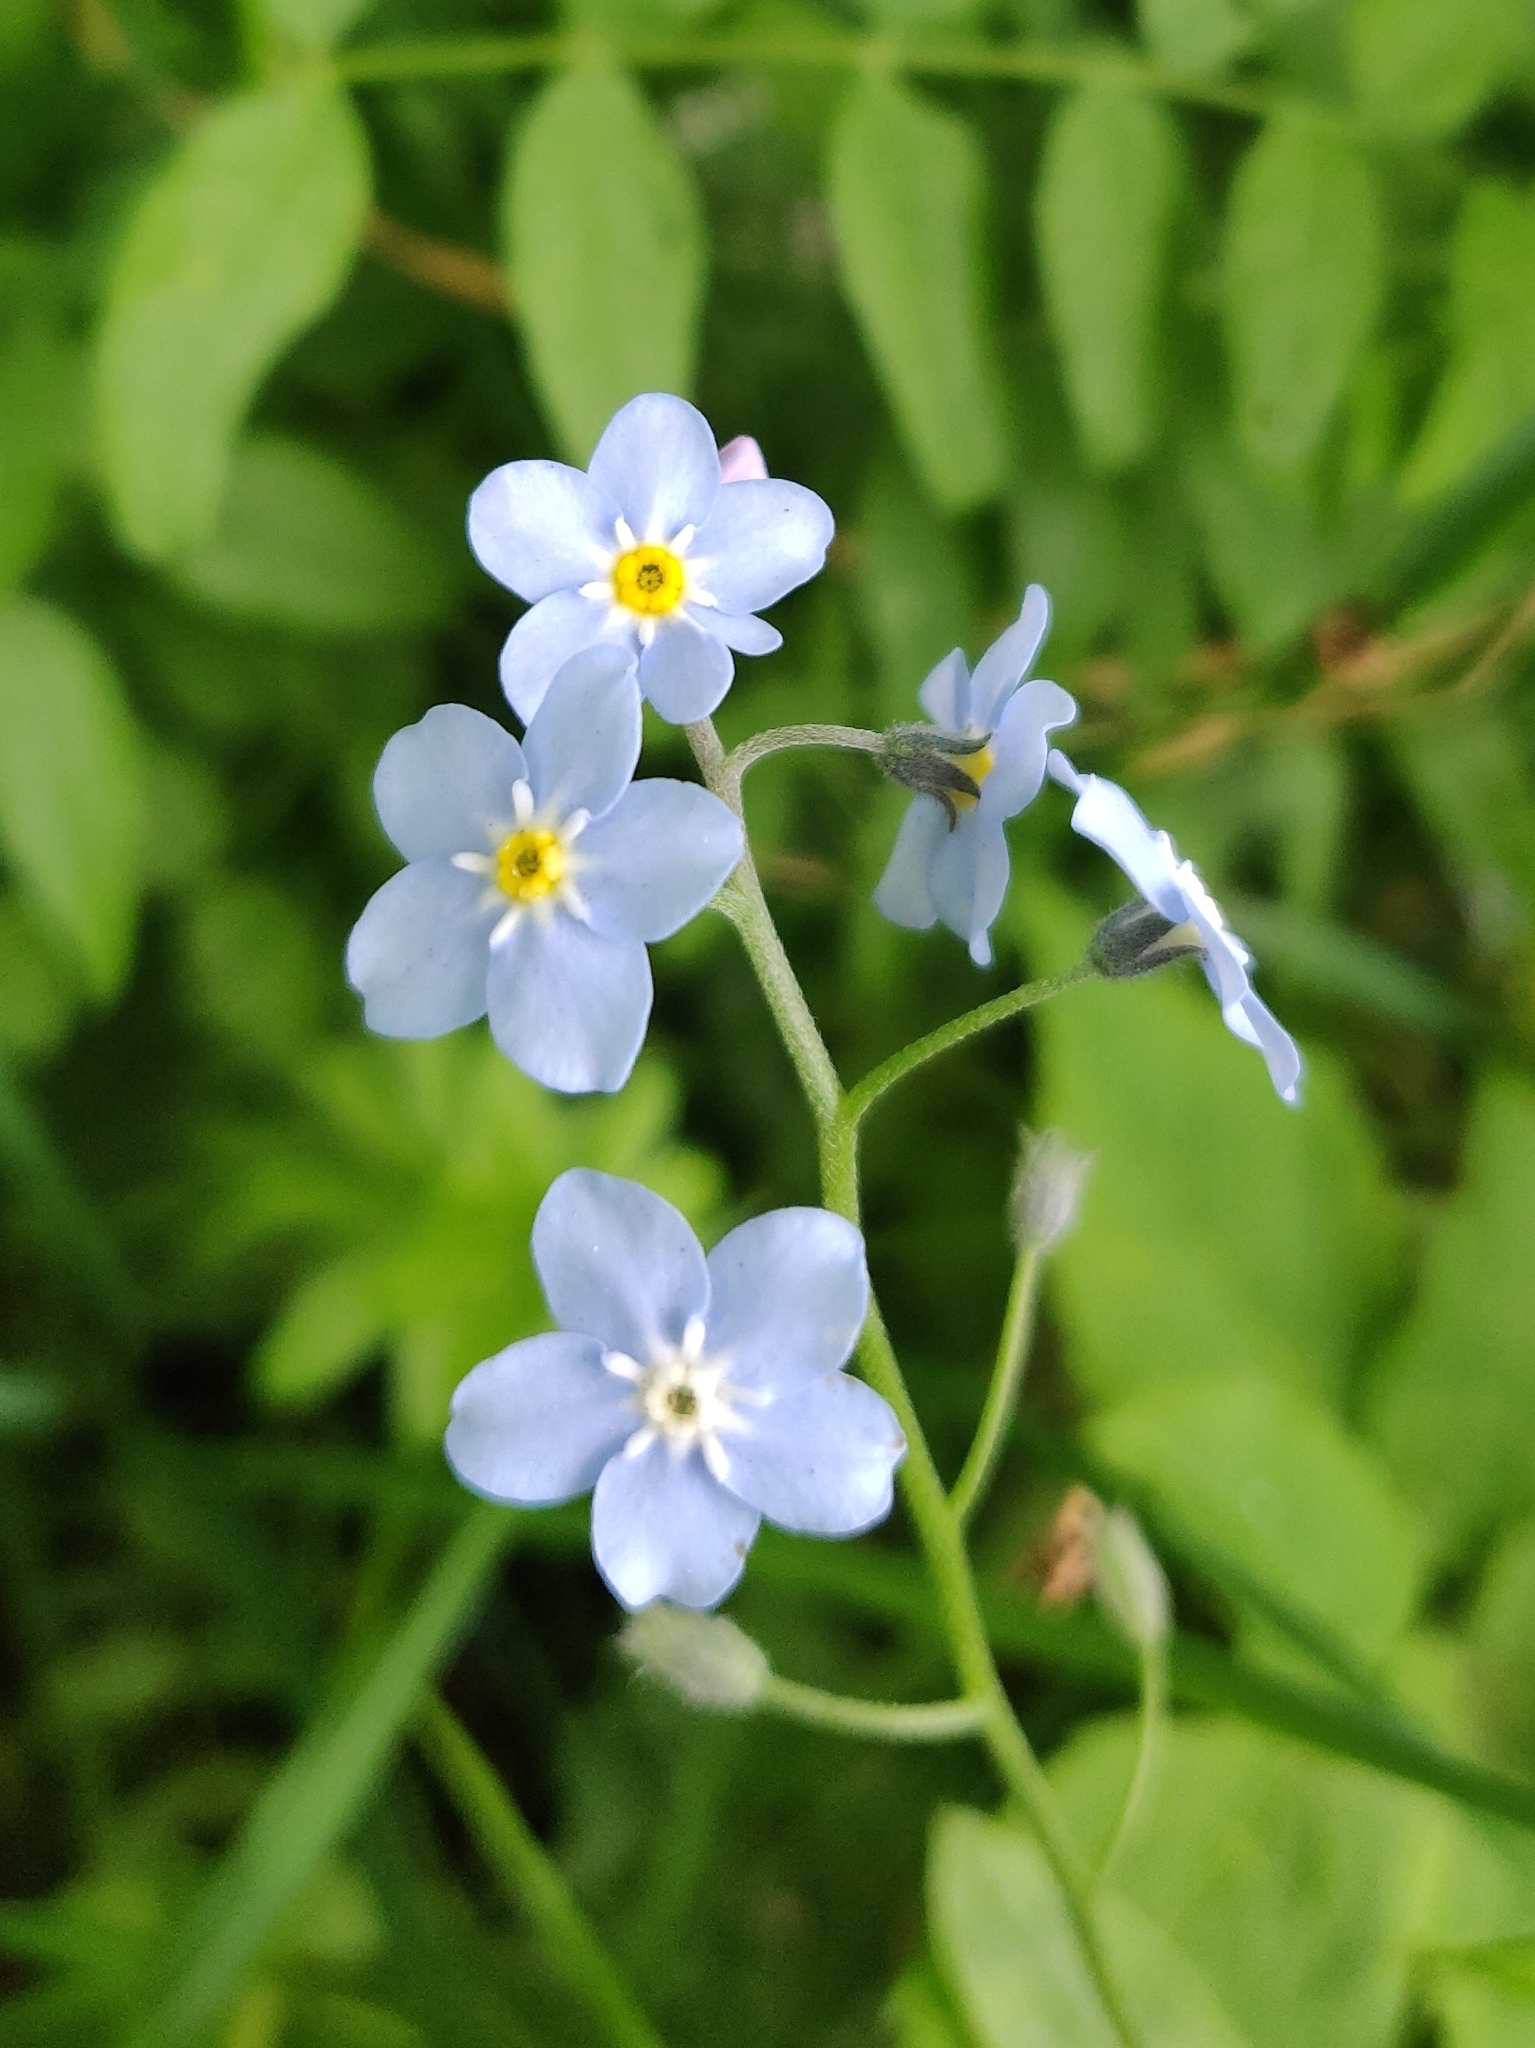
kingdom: Plantae
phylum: Tracheophyta
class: Magnoliopsida
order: Boraginales
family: Boraginaceae
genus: Myosotis
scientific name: Myosotis sylvatica
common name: Wood forget-me-not
